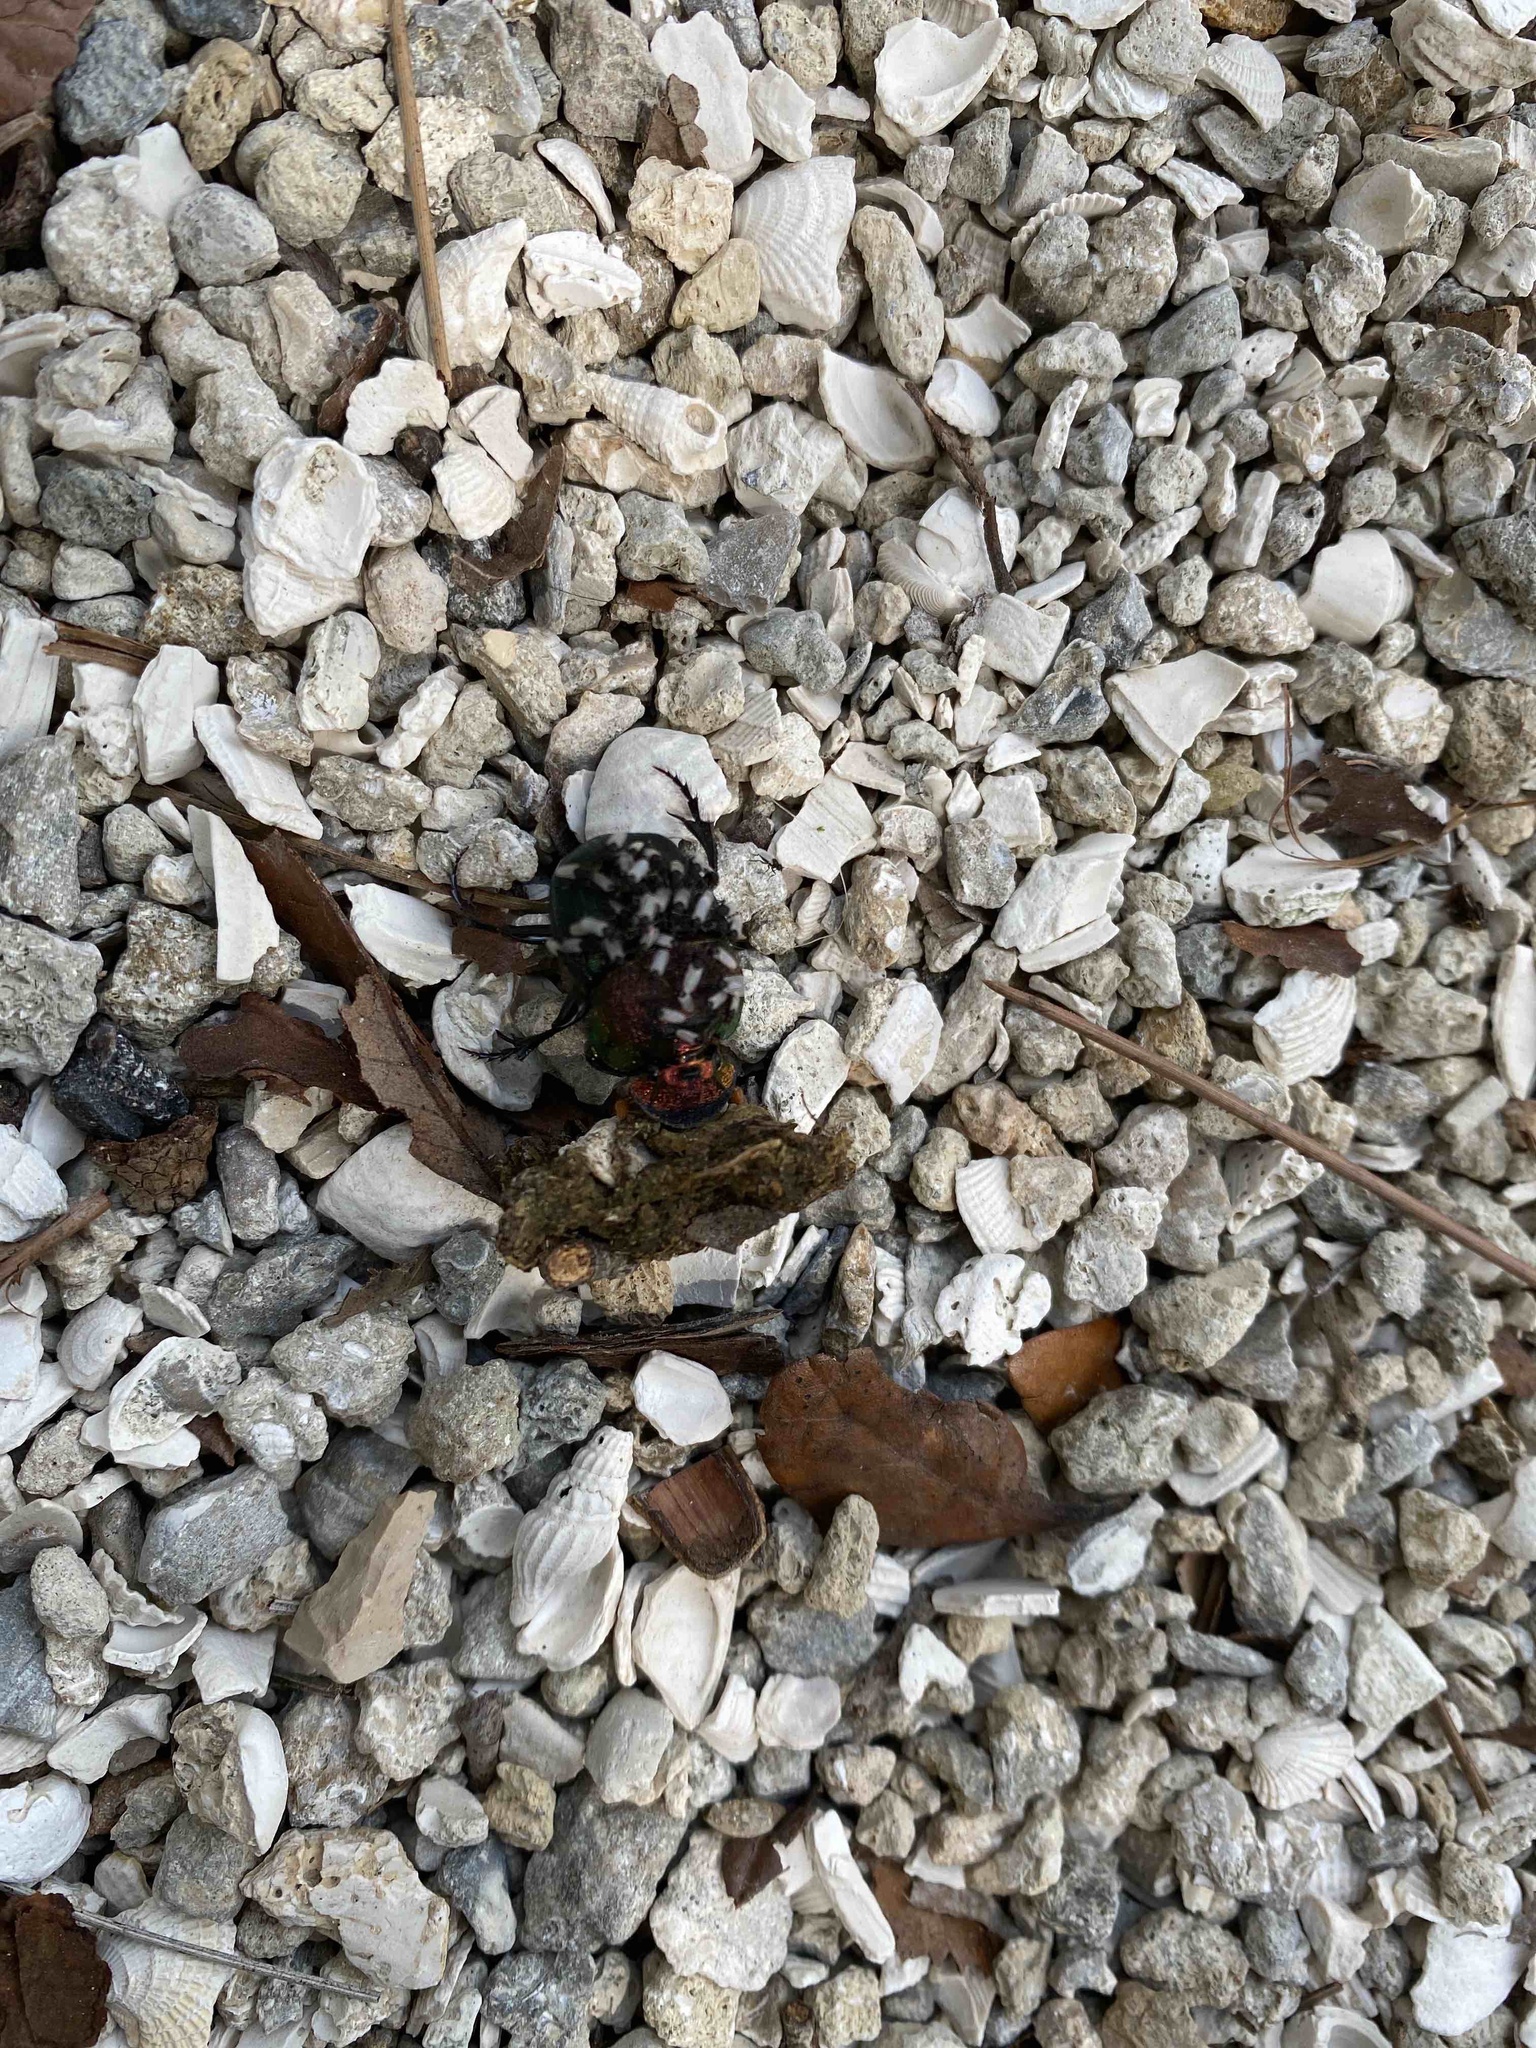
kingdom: Animalia
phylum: Arthropoda
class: Insecta
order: Coleoptera
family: Scarabaeidae
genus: Phanaeus
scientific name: Phanaeus vindex
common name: Rainbow scarab
